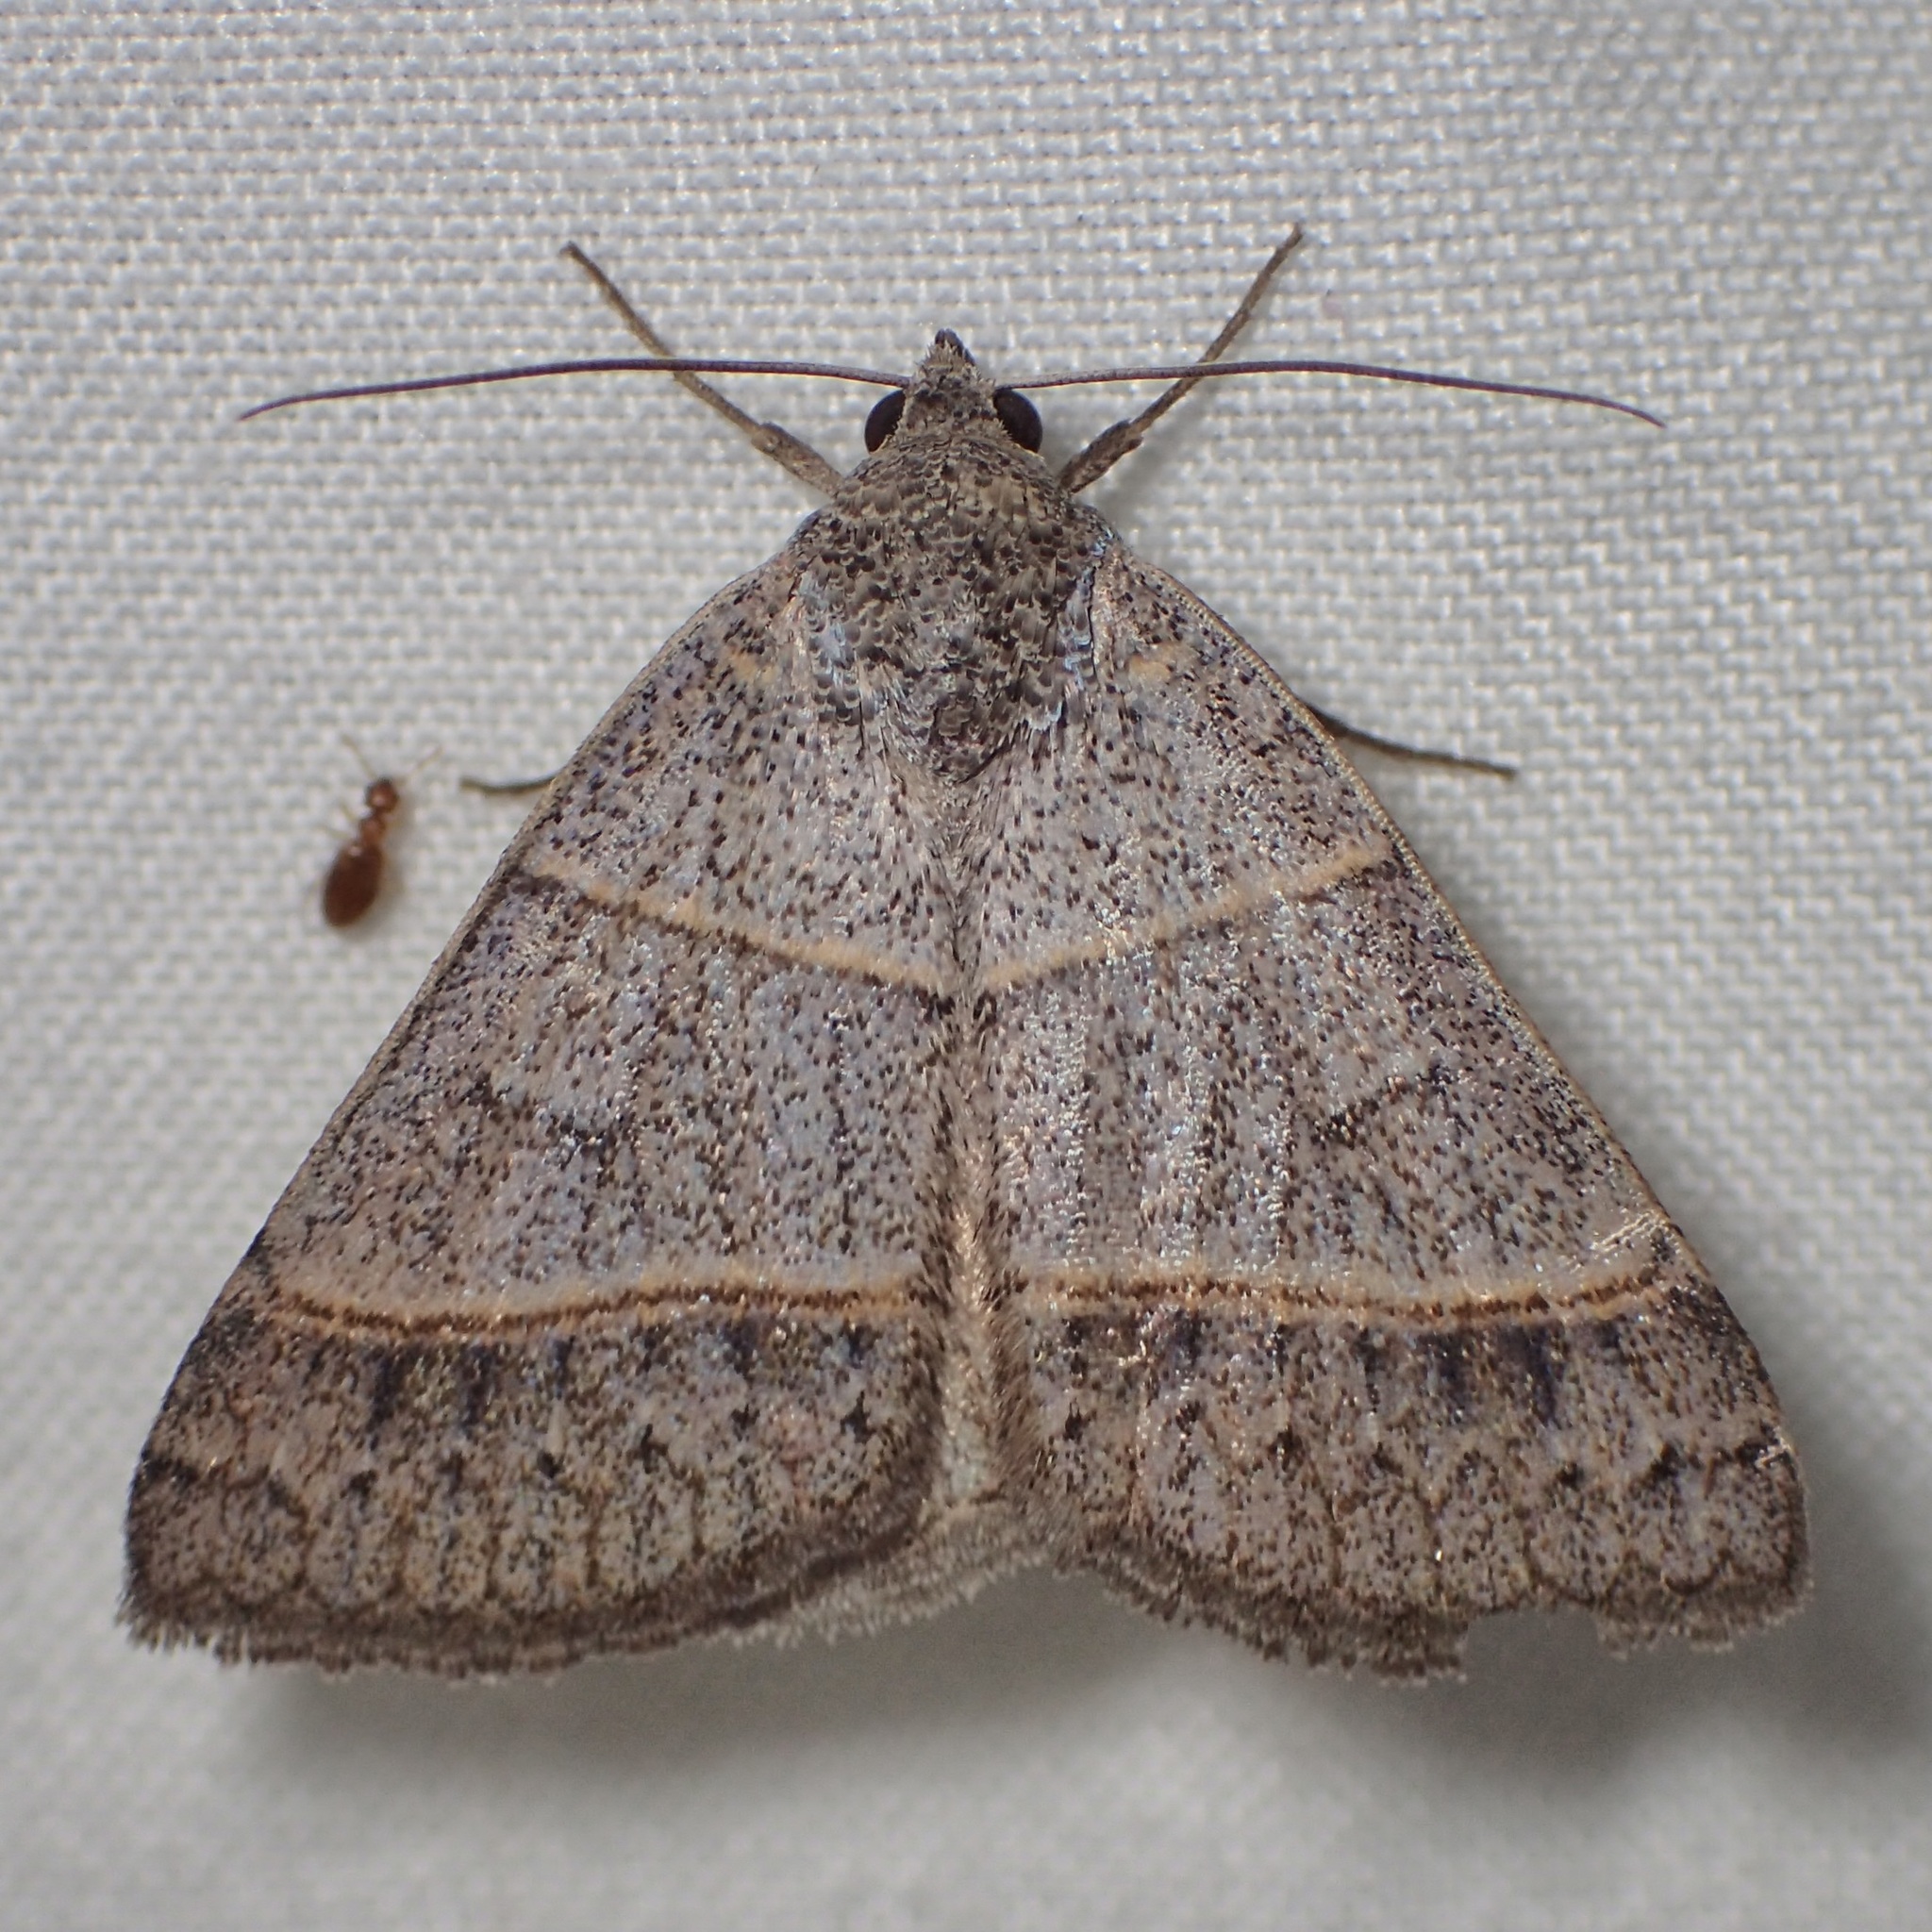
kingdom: Animalia
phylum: Arthropoda
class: Insecta
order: Lepidoptera
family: Erebidae
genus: Ptichodis
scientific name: Ptichodis ovalis
